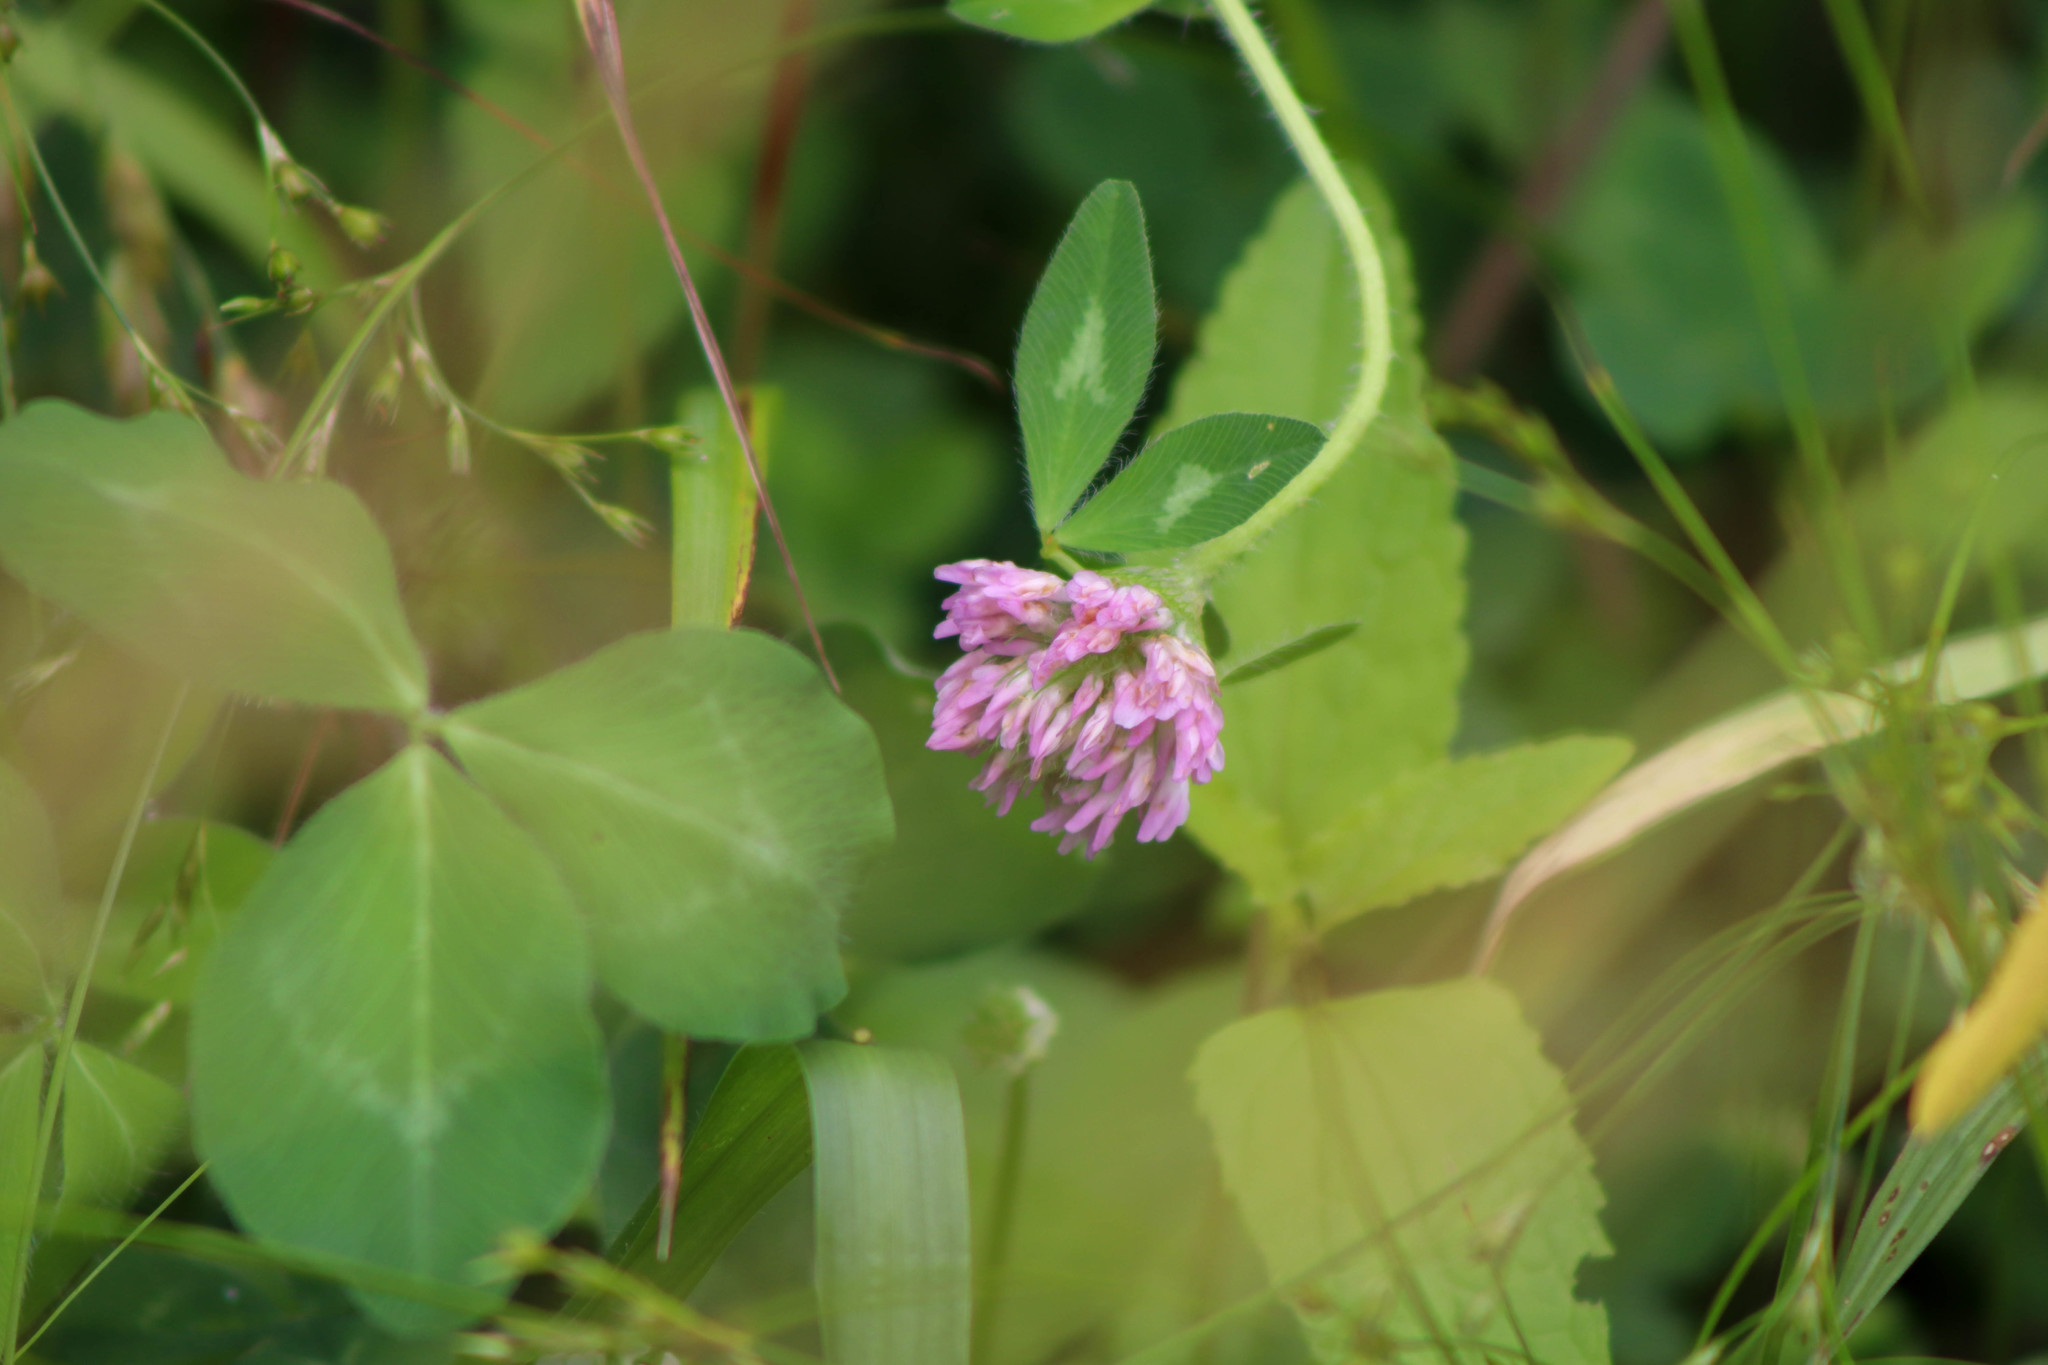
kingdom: Plantae
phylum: Tracheophyta
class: Magnoliopsida
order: Fabales
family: Fabaceae
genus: Trifolium
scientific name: Trifolium pratense
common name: Red clover
